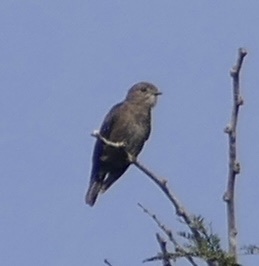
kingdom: Animalia
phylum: Chordata
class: Aves
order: Passeriformes
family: Muscicapidae
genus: Muscicapa
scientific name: Muscicapa ussheri
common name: Ussher's flycatcher
